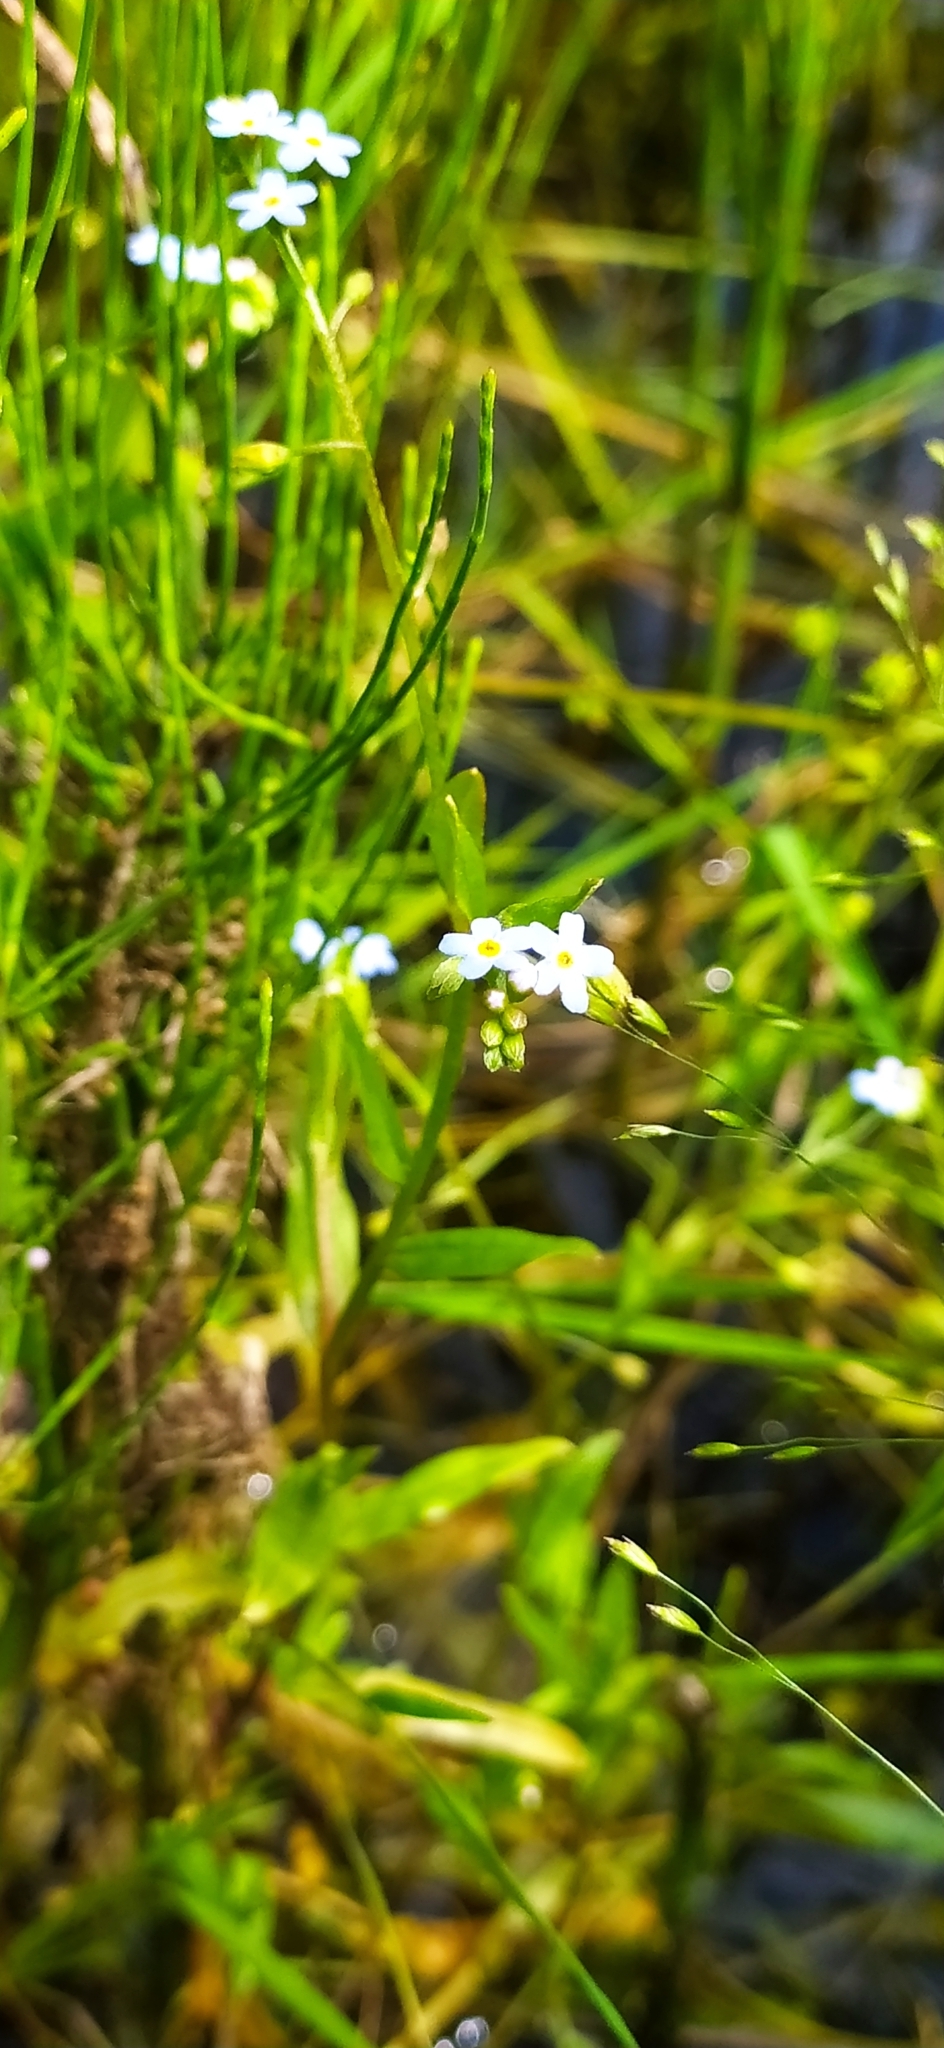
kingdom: Plantae
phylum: Tracheophyta
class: Magnoliopsida
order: Boraginales
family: Boraginaceae
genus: Myosotis
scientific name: Myosotis scorpioides
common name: Water forget-me-not
